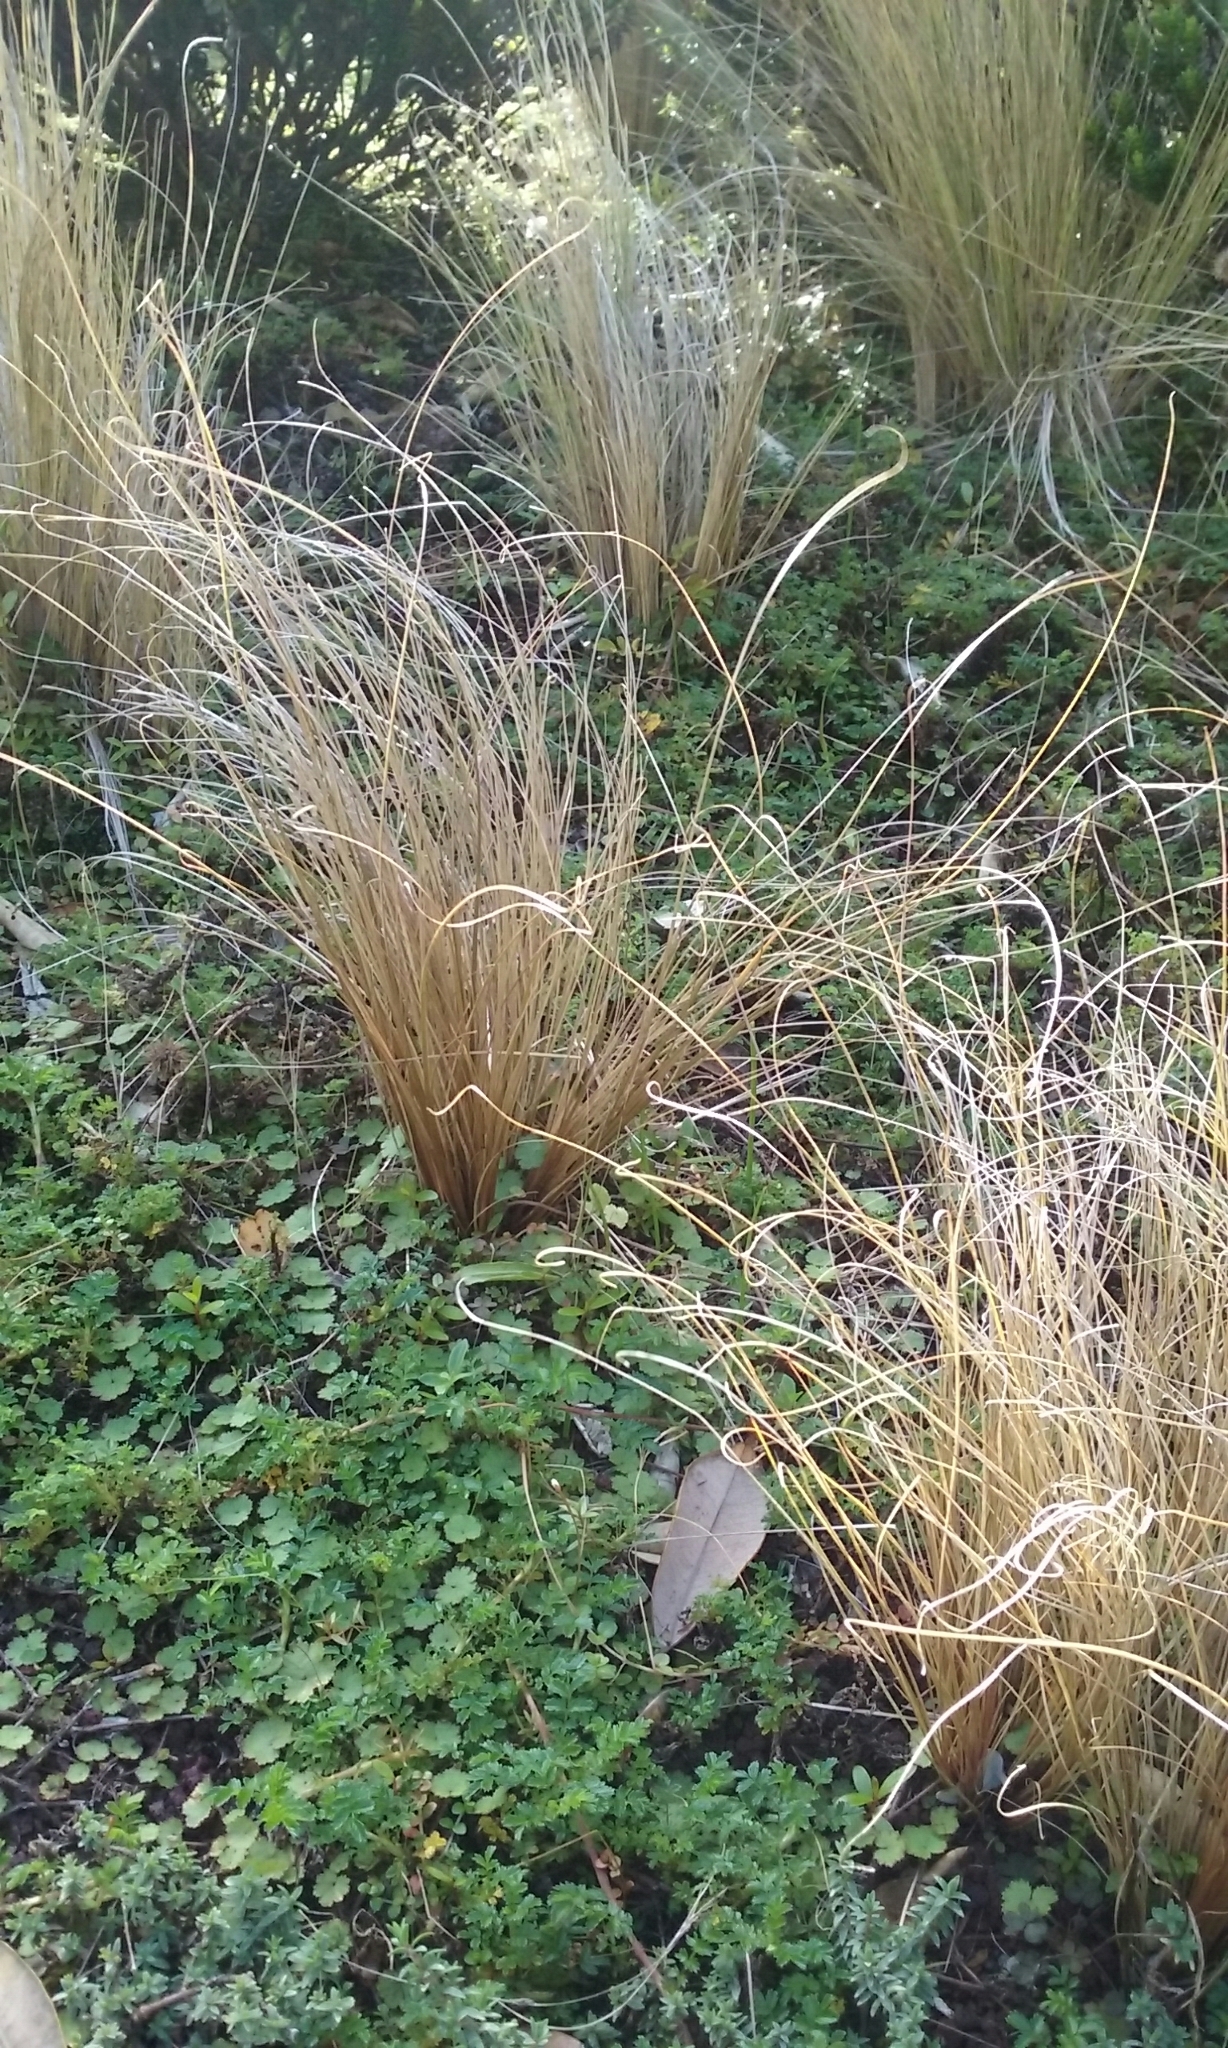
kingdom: Plantae
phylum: Tracheophyta
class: Liliopsida
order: Poales
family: Cyperaceae
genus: Carex
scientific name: Carex comans
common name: Longwood tussock
